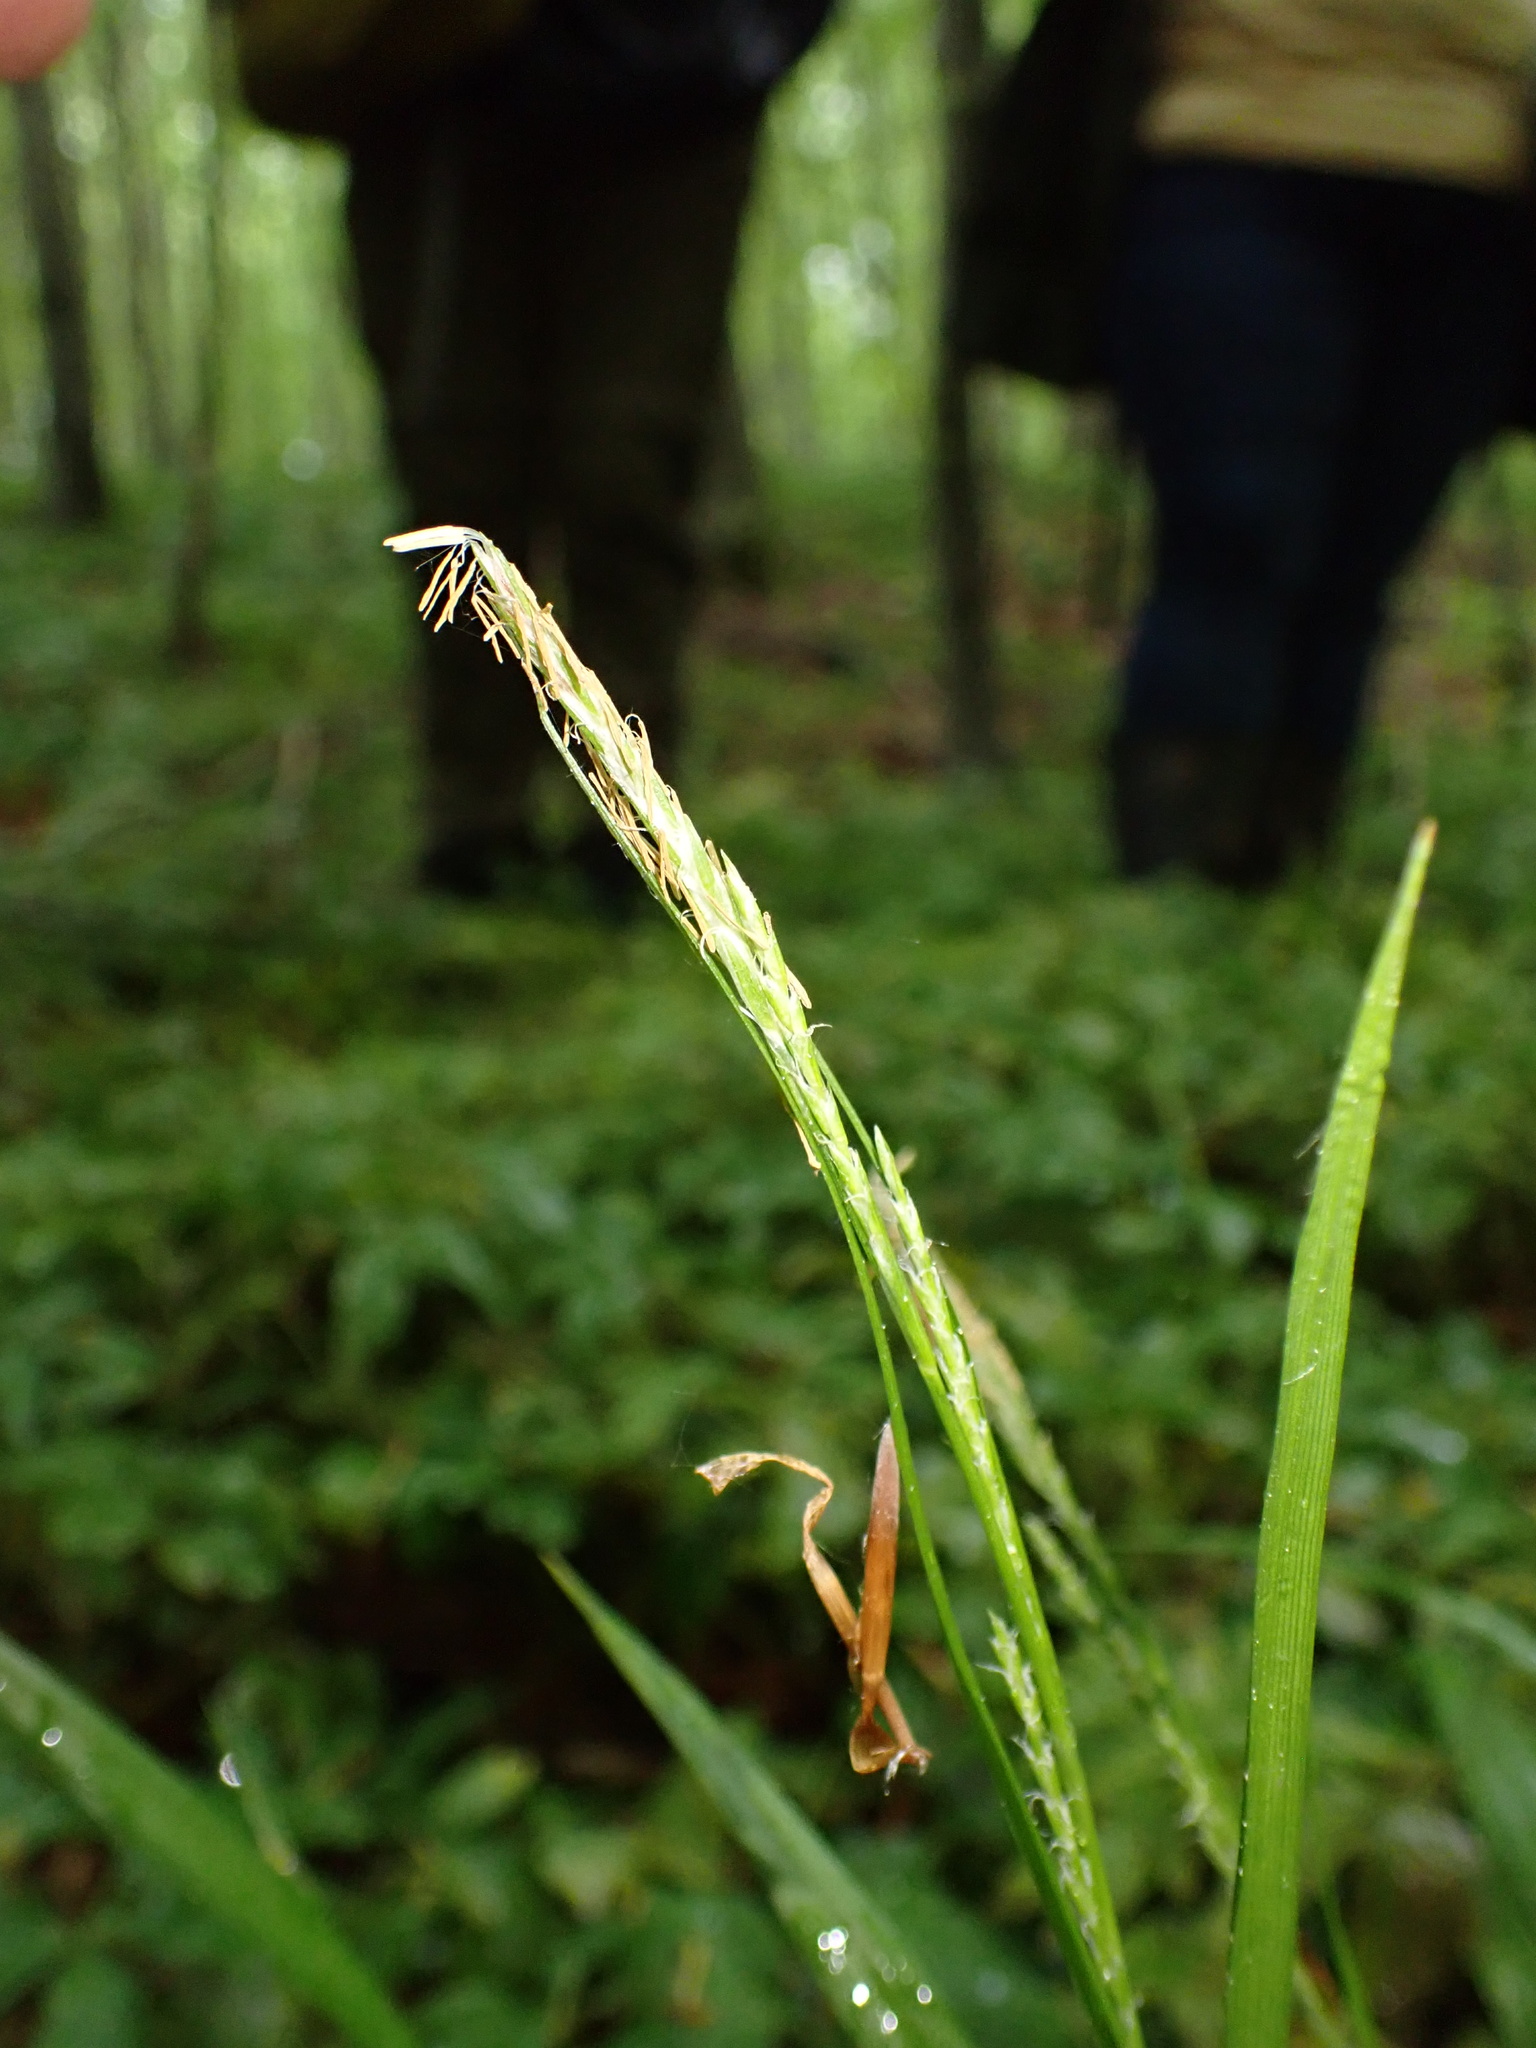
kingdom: Plantae
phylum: Tracheophyta
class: Liliopsida
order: Poales
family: Cyperaceae
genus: Carex
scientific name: Carex strigosa
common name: Thin-spiked wood-sedge
